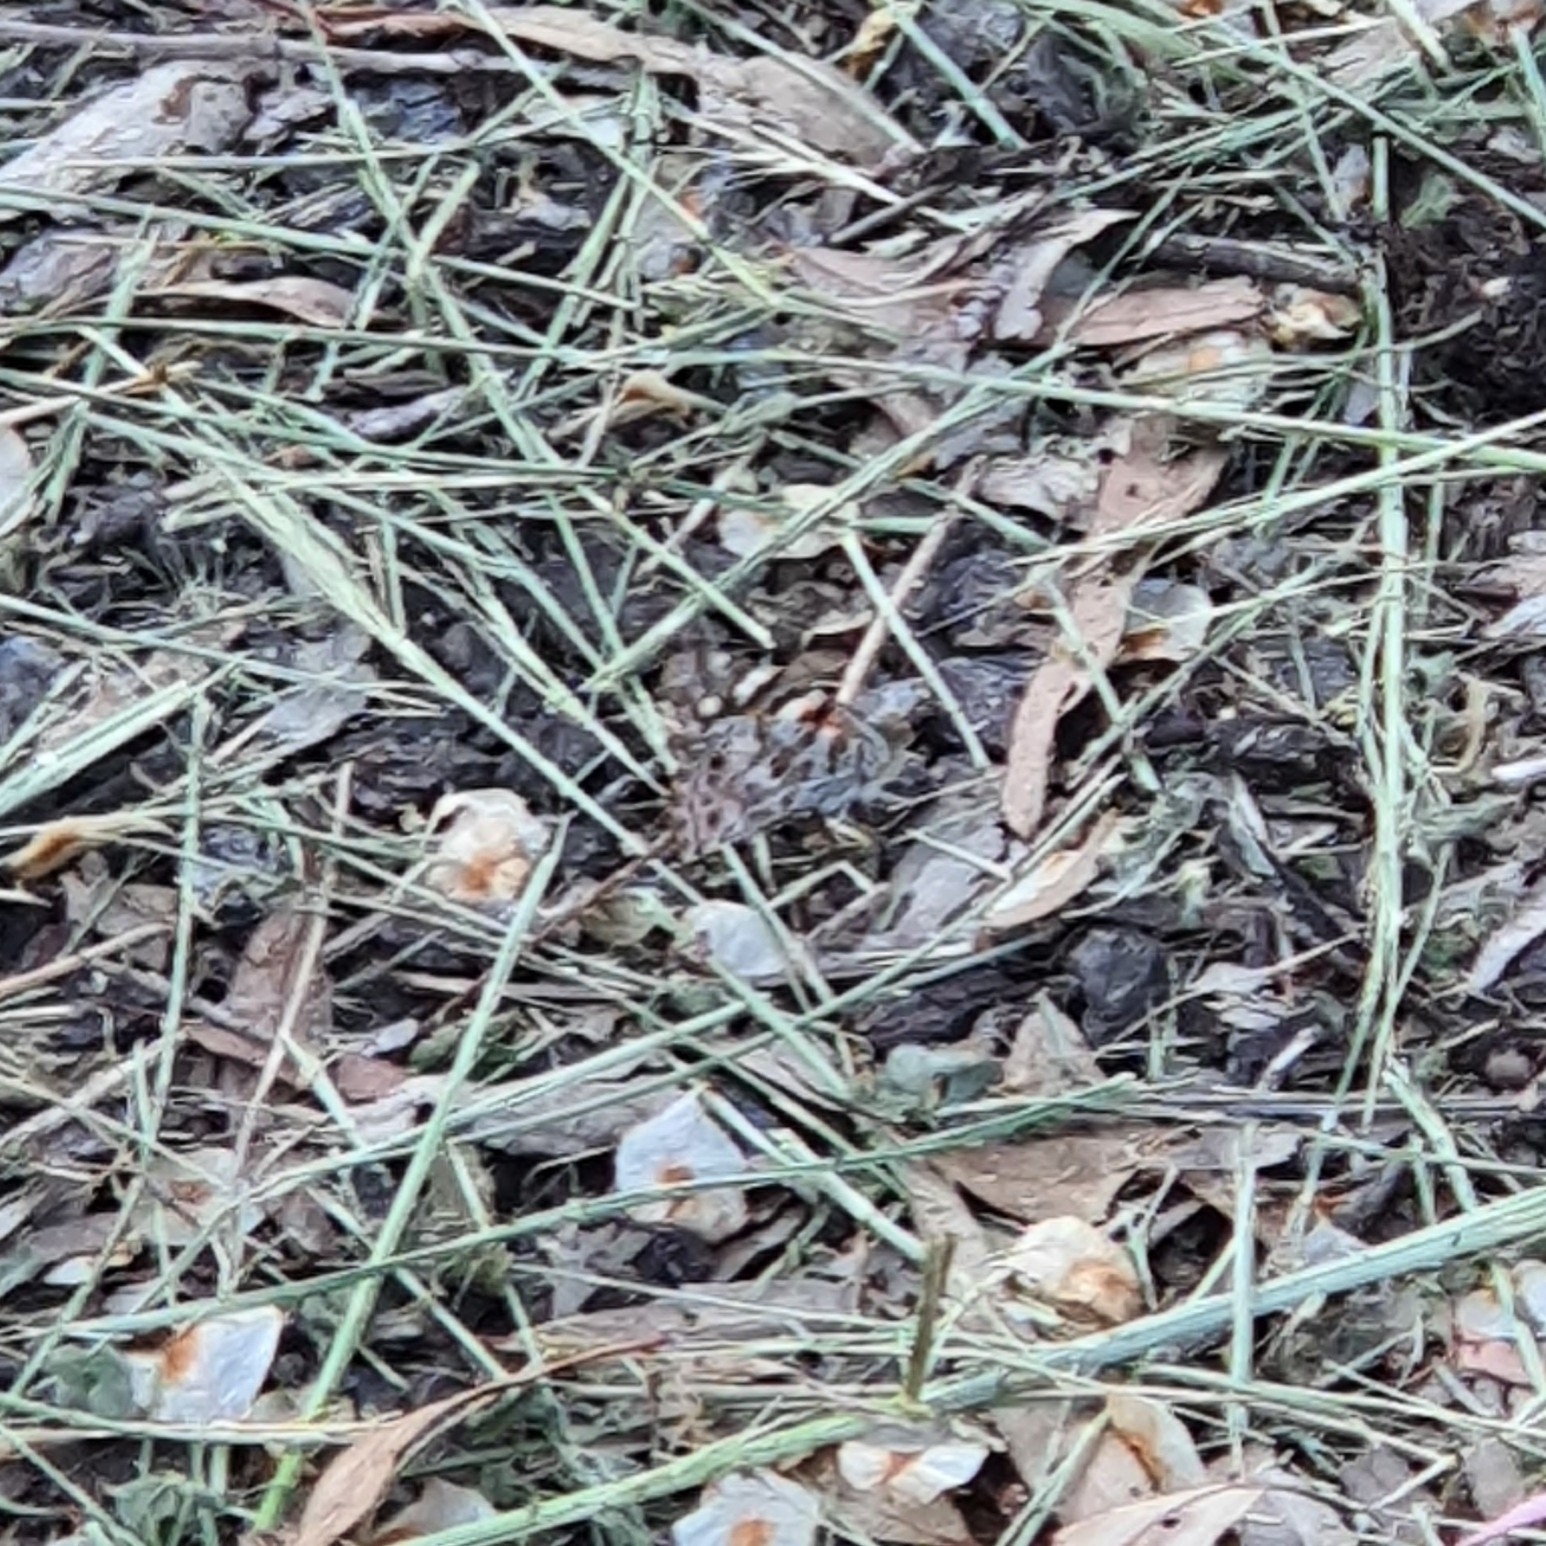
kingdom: Animalia
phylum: Arthropoda
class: Insecta
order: Lepidoptera
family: Nymphalidae
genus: Vanessa
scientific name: Vanessa kershawi
